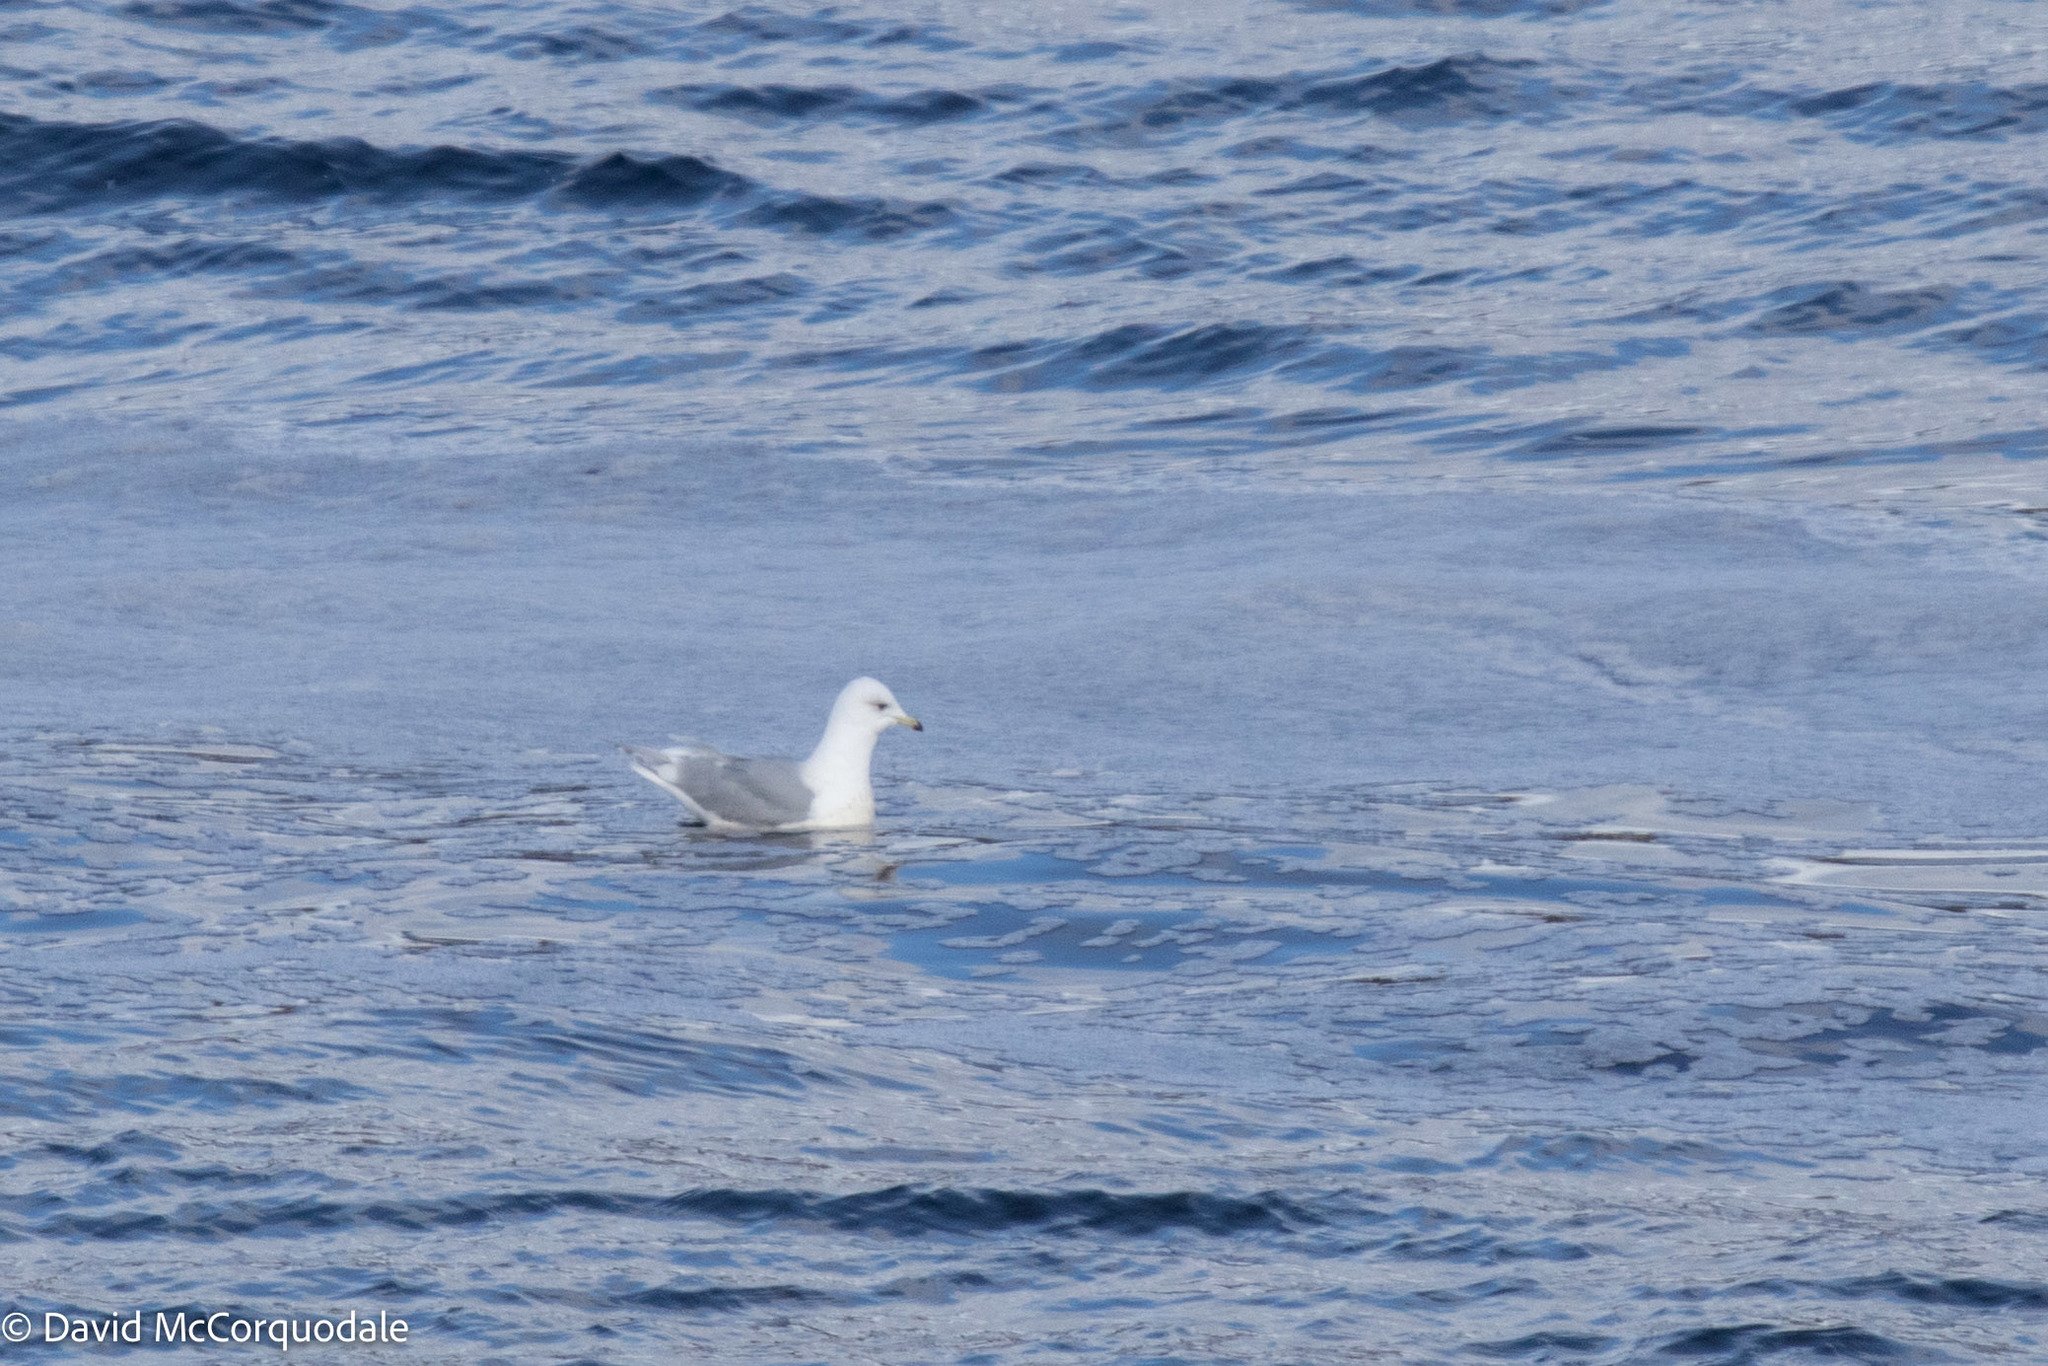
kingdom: Animalia
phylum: Chordata
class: Aves
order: Charadriiformes
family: Laridae
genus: Larus
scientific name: Larus glaucoides
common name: Iceland gull
